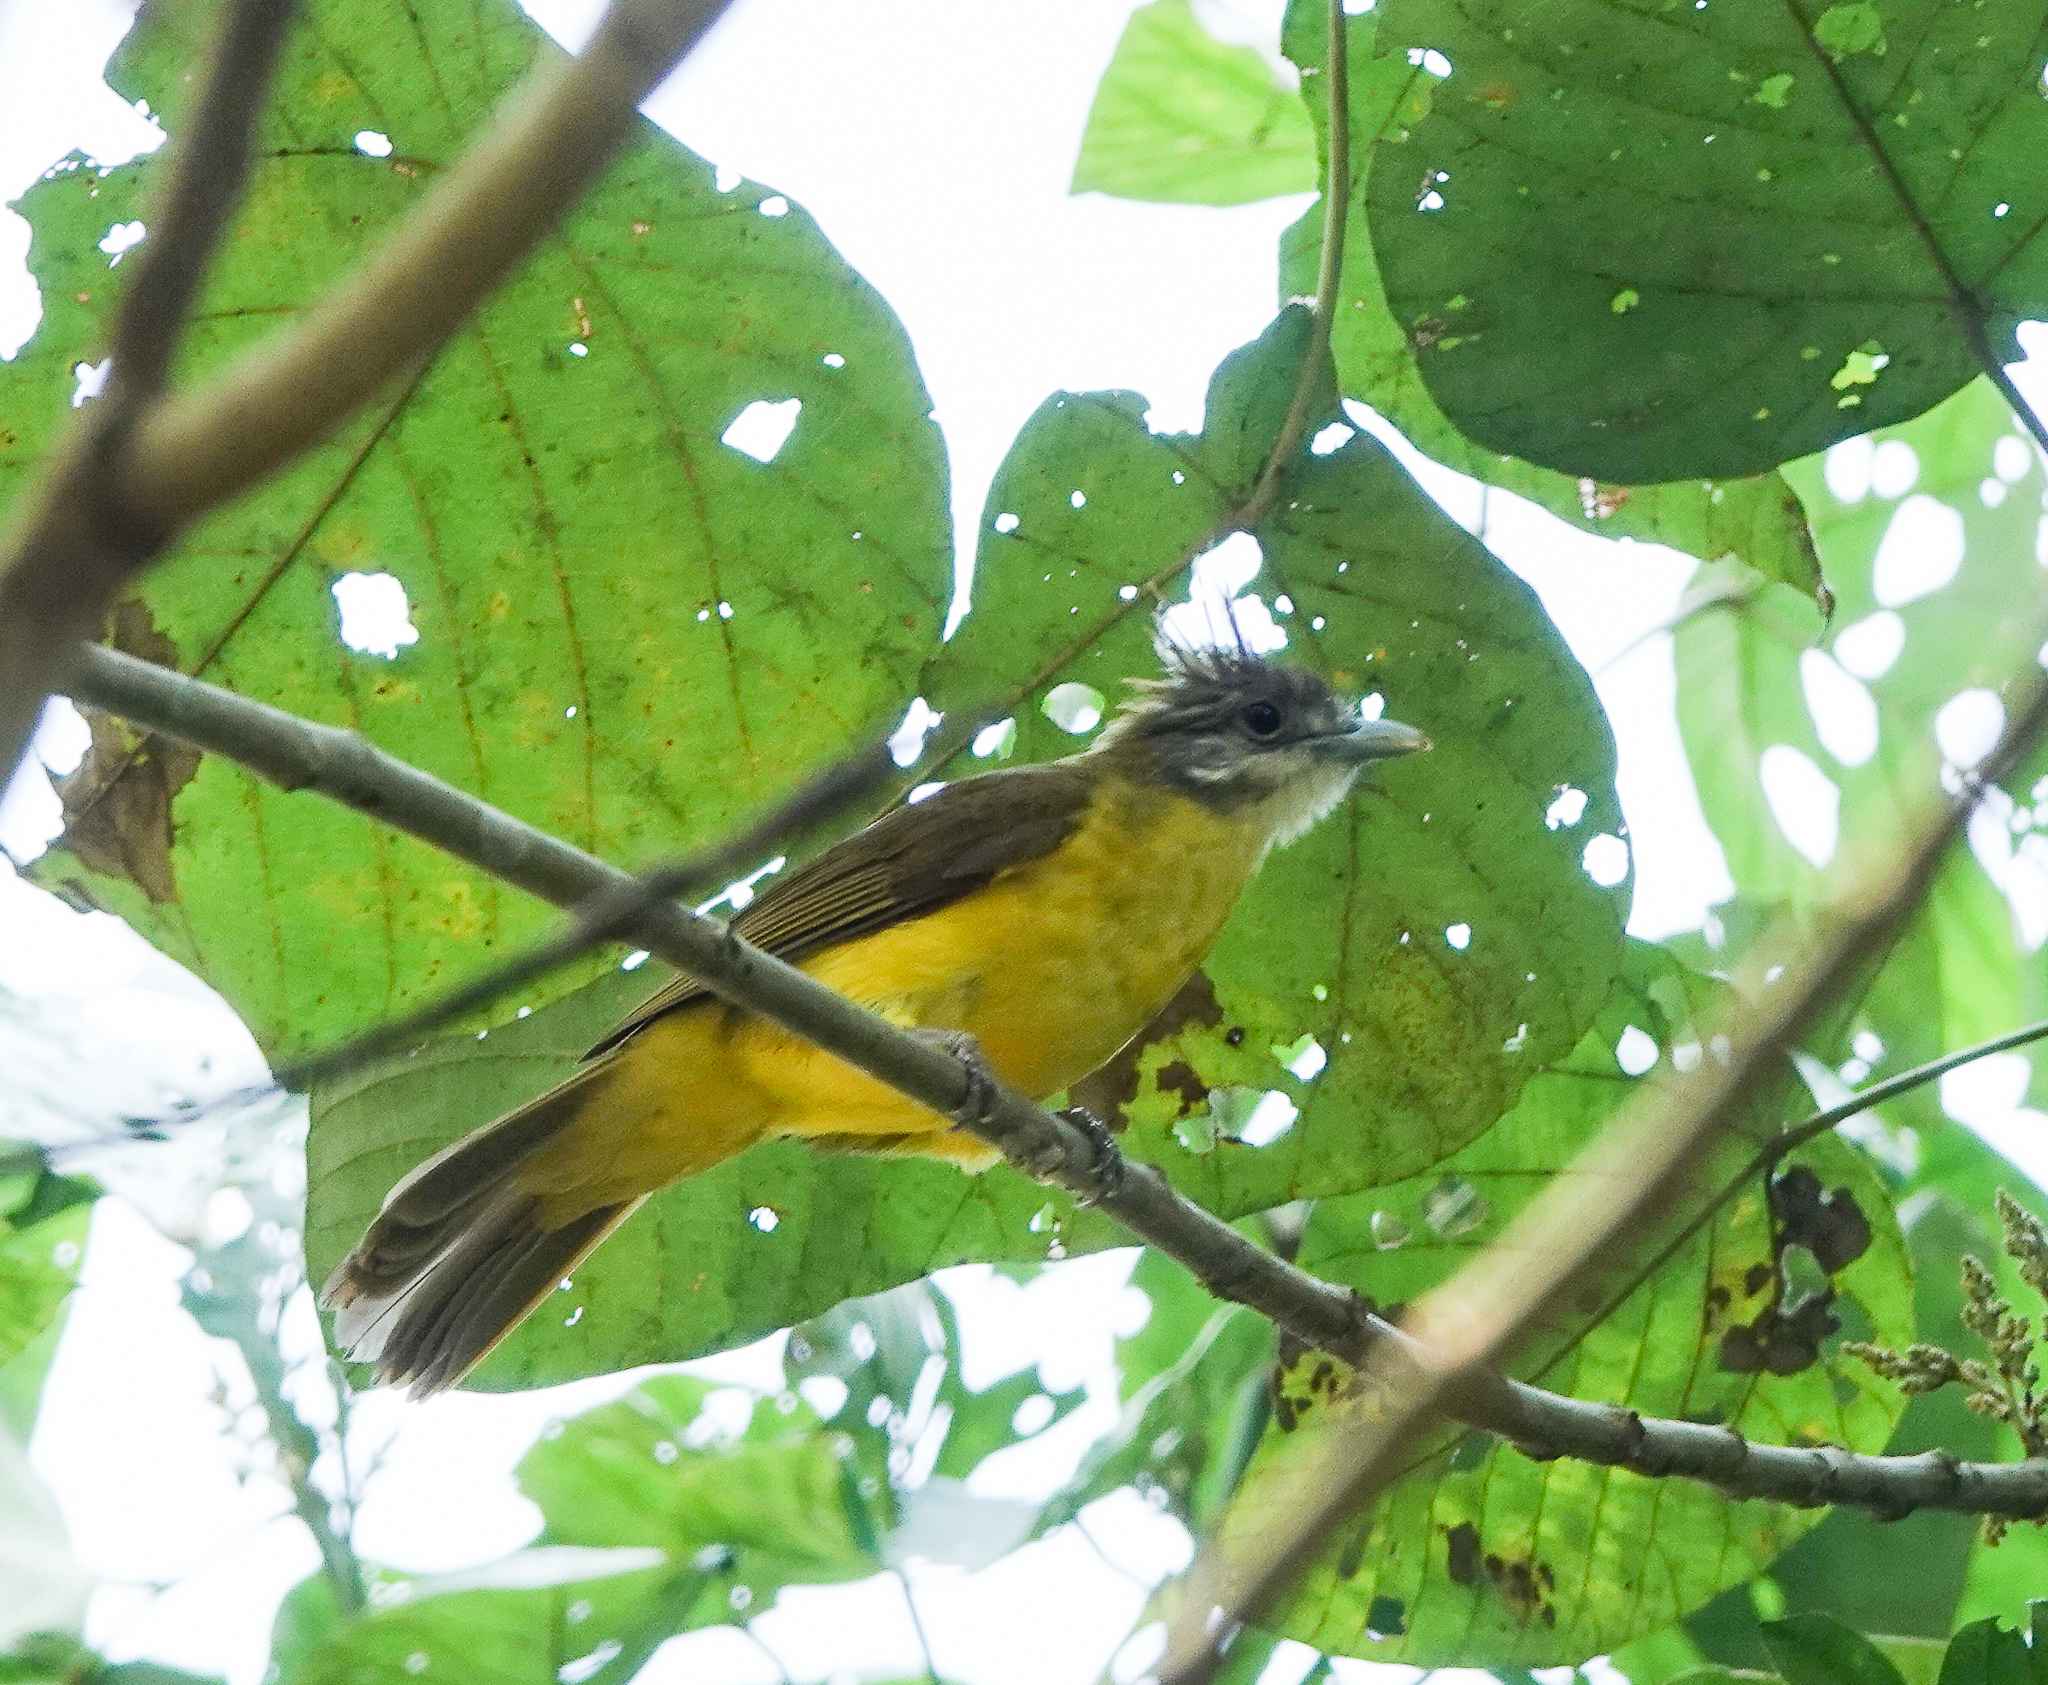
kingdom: Animalia
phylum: Chordata
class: Aves
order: Passeriformes
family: Pycnonotidae
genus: Alophoixus
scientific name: Alophoixus flaveolus
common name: White-throated bulbul
